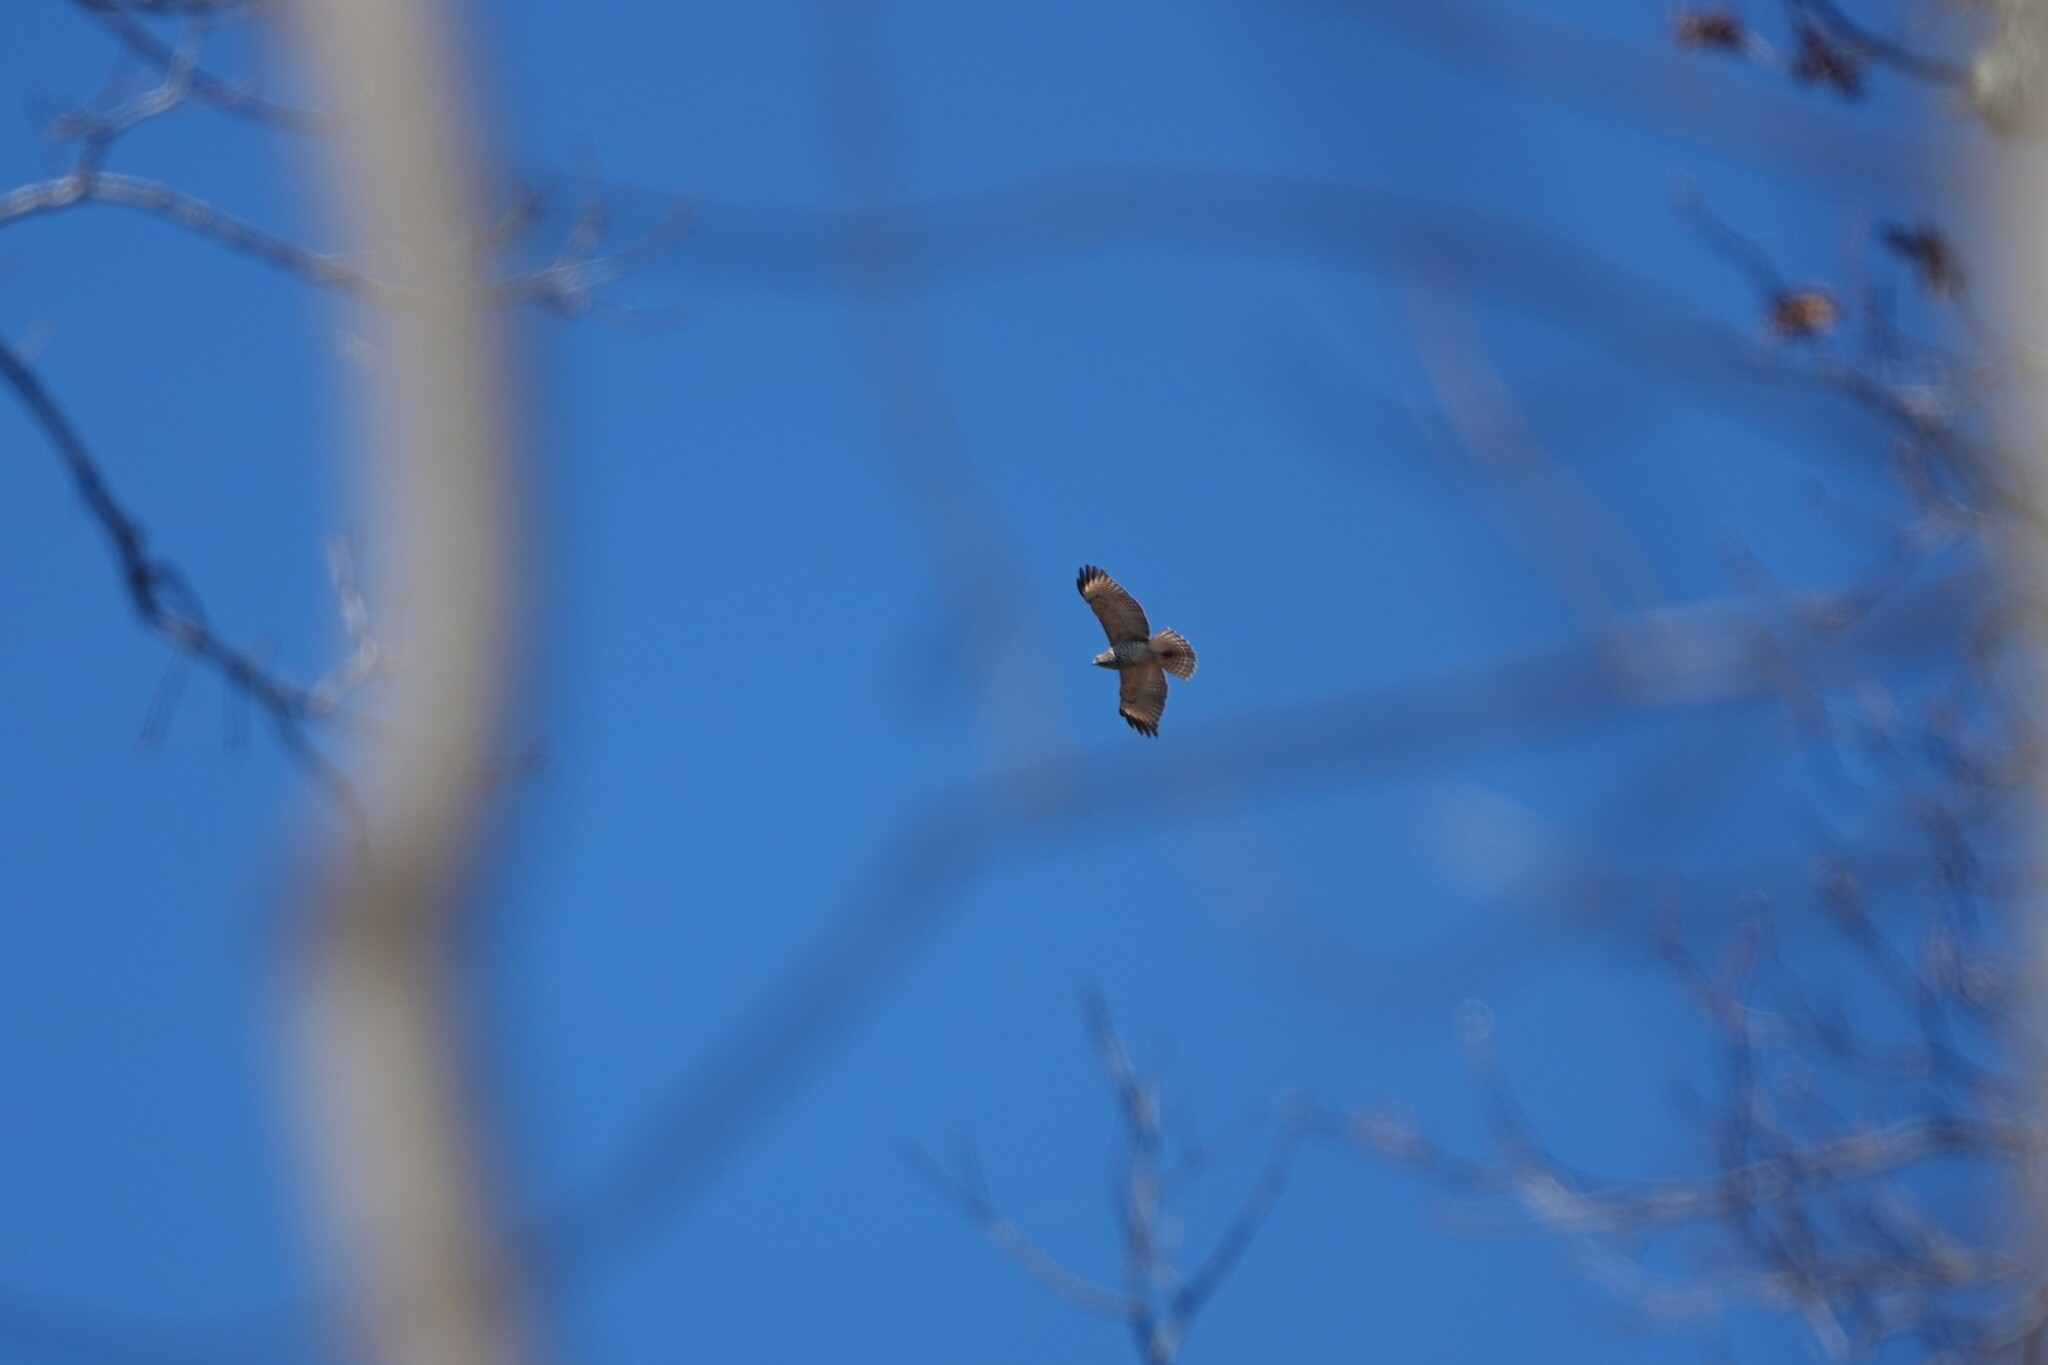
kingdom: Animalia
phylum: Chordata
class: Aves
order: Accipitriformes
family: Accipitridae
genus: Buteo
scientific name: Buteo lineatus
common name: Red-shouldered hawk
